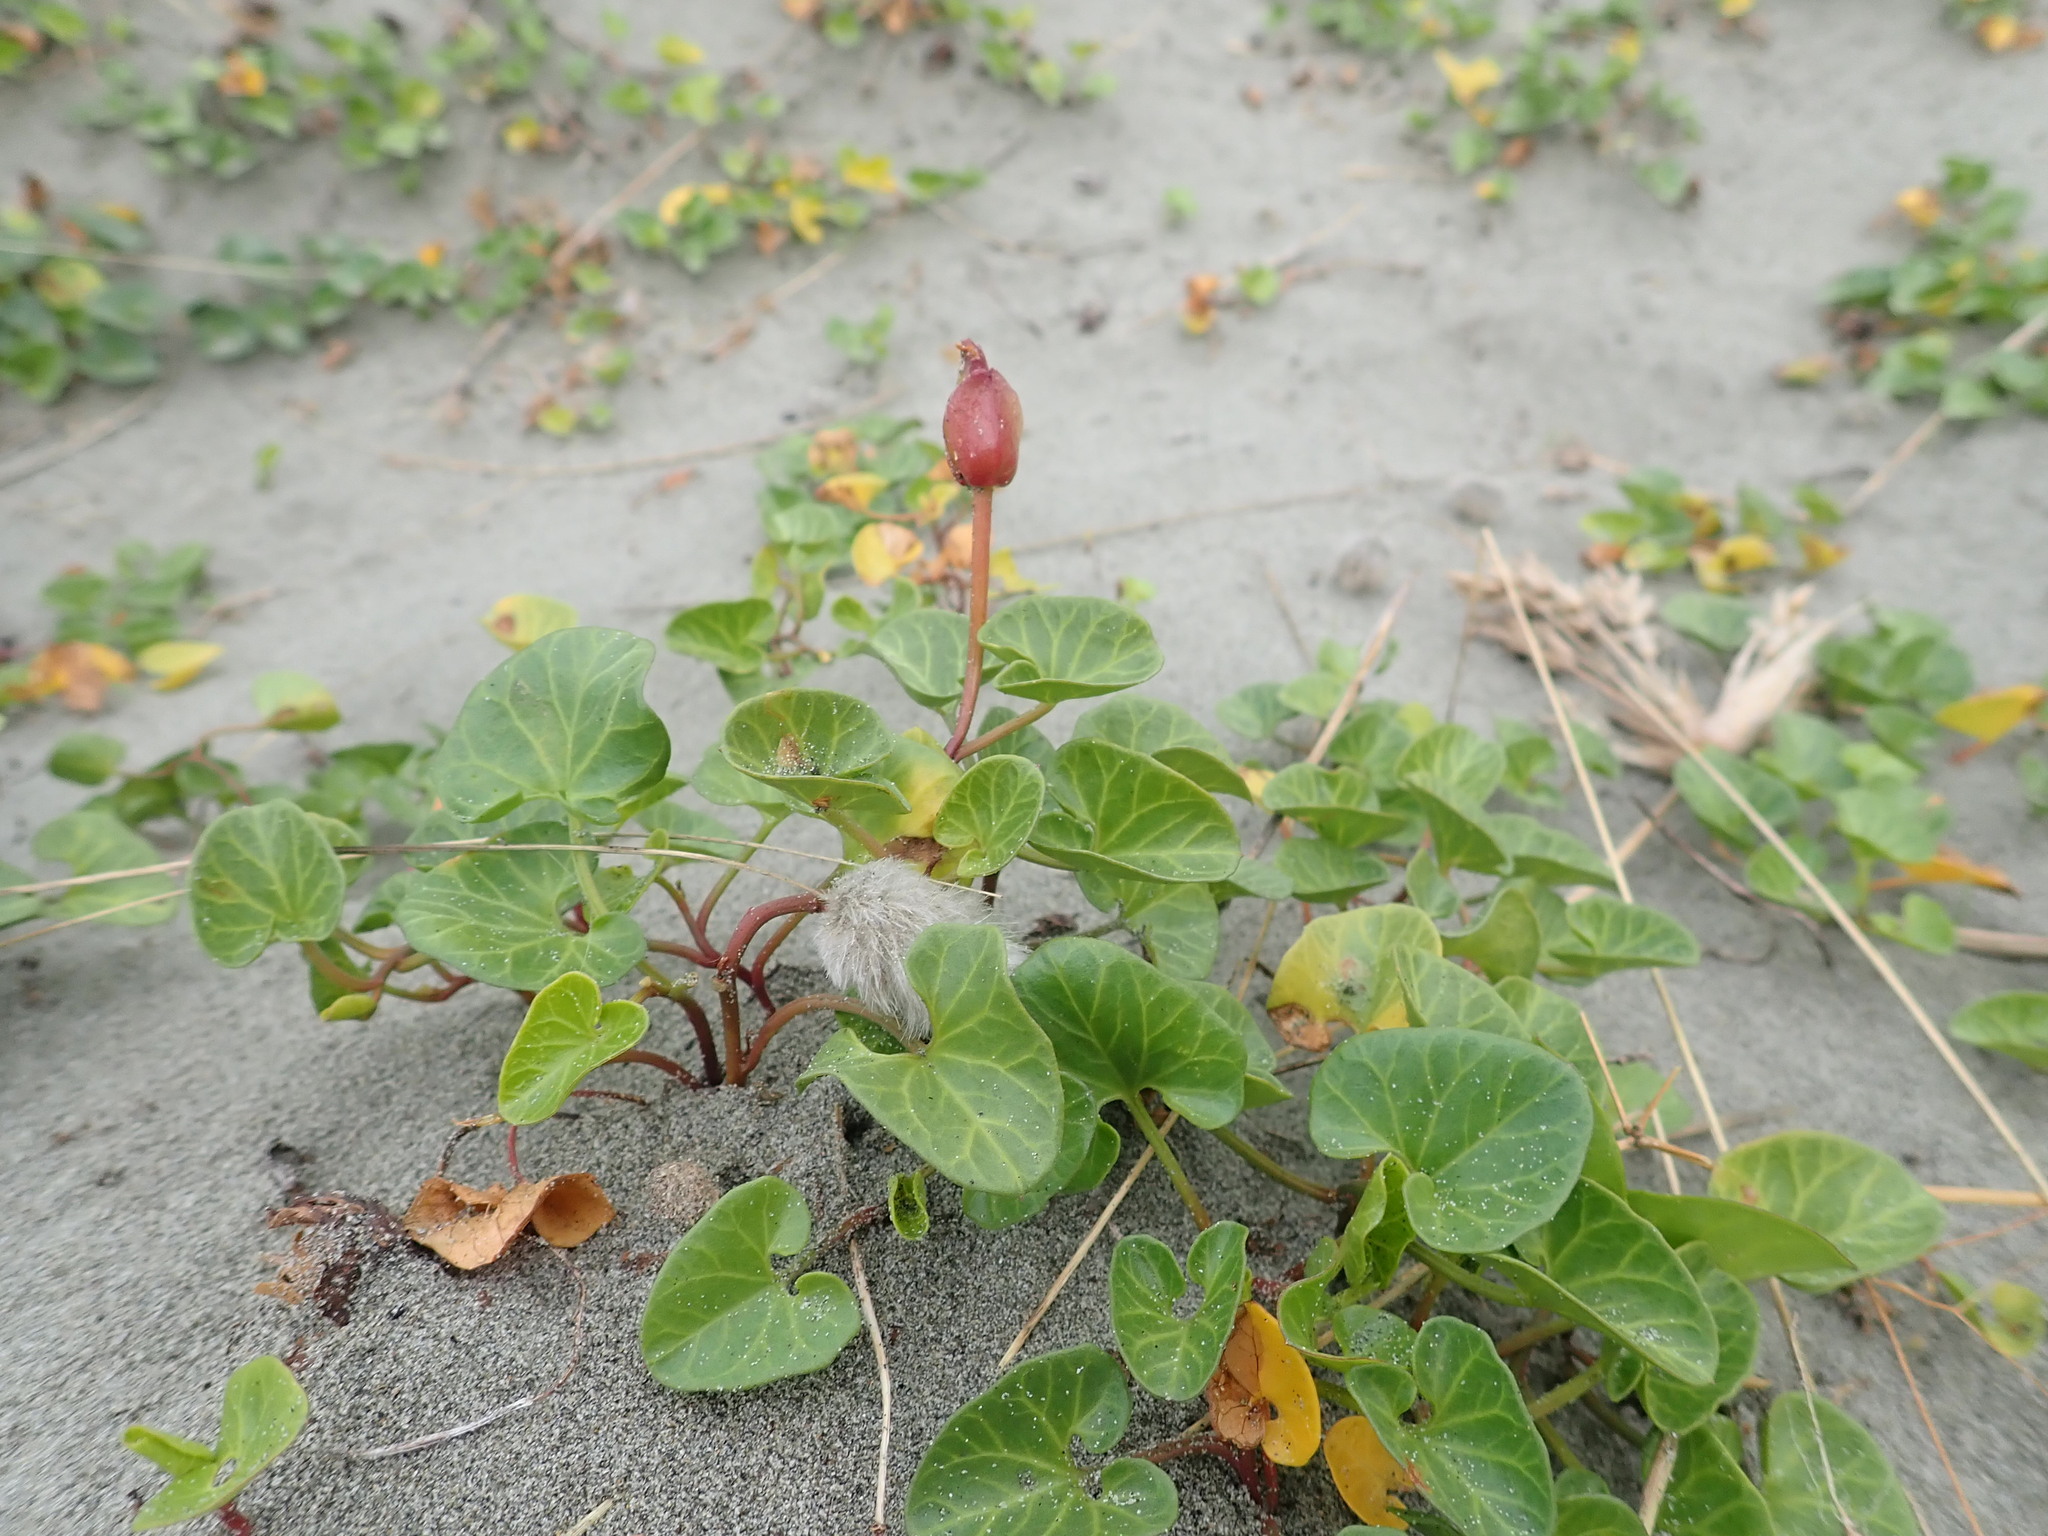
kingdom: Plantae
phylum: Tracheophyta
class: Magnoliopsida
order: Solanales
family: Convolvulaceae
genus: Calystegia
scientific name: Calystegia soldanella
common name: Sea bindweed
